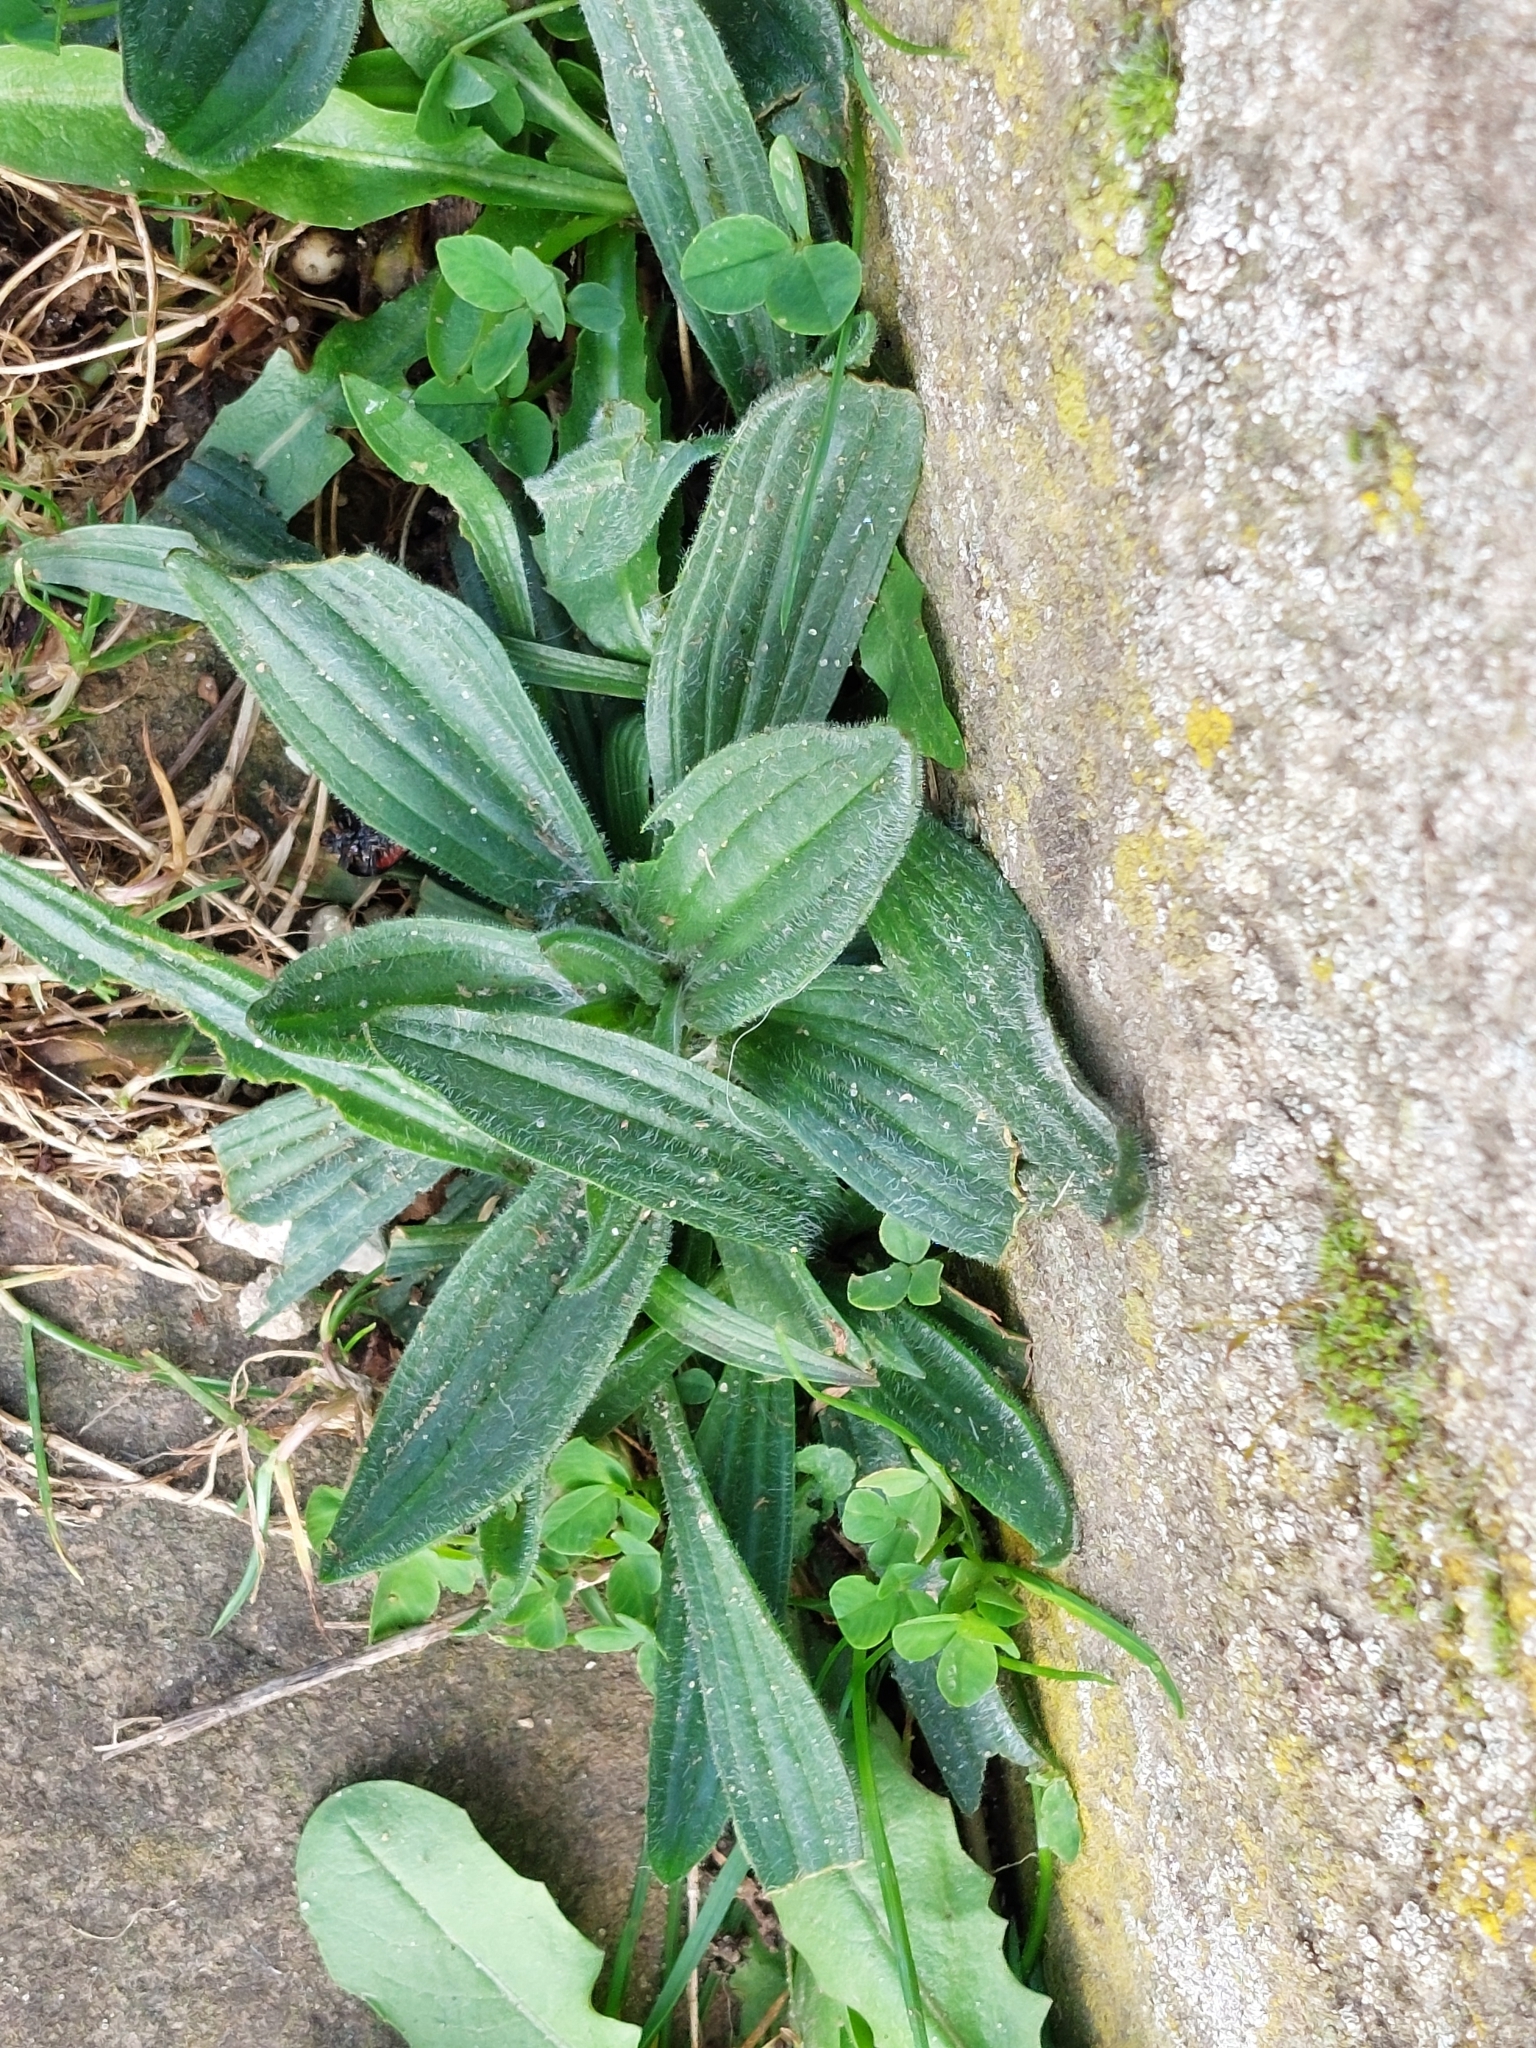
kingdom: Plantae
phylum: Tracheophyta
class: Magnoliopsida
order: Lamiales
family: Plantaginaceae
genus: Plantago
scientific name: Plantago lanceolata
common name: Ribwort plantain
